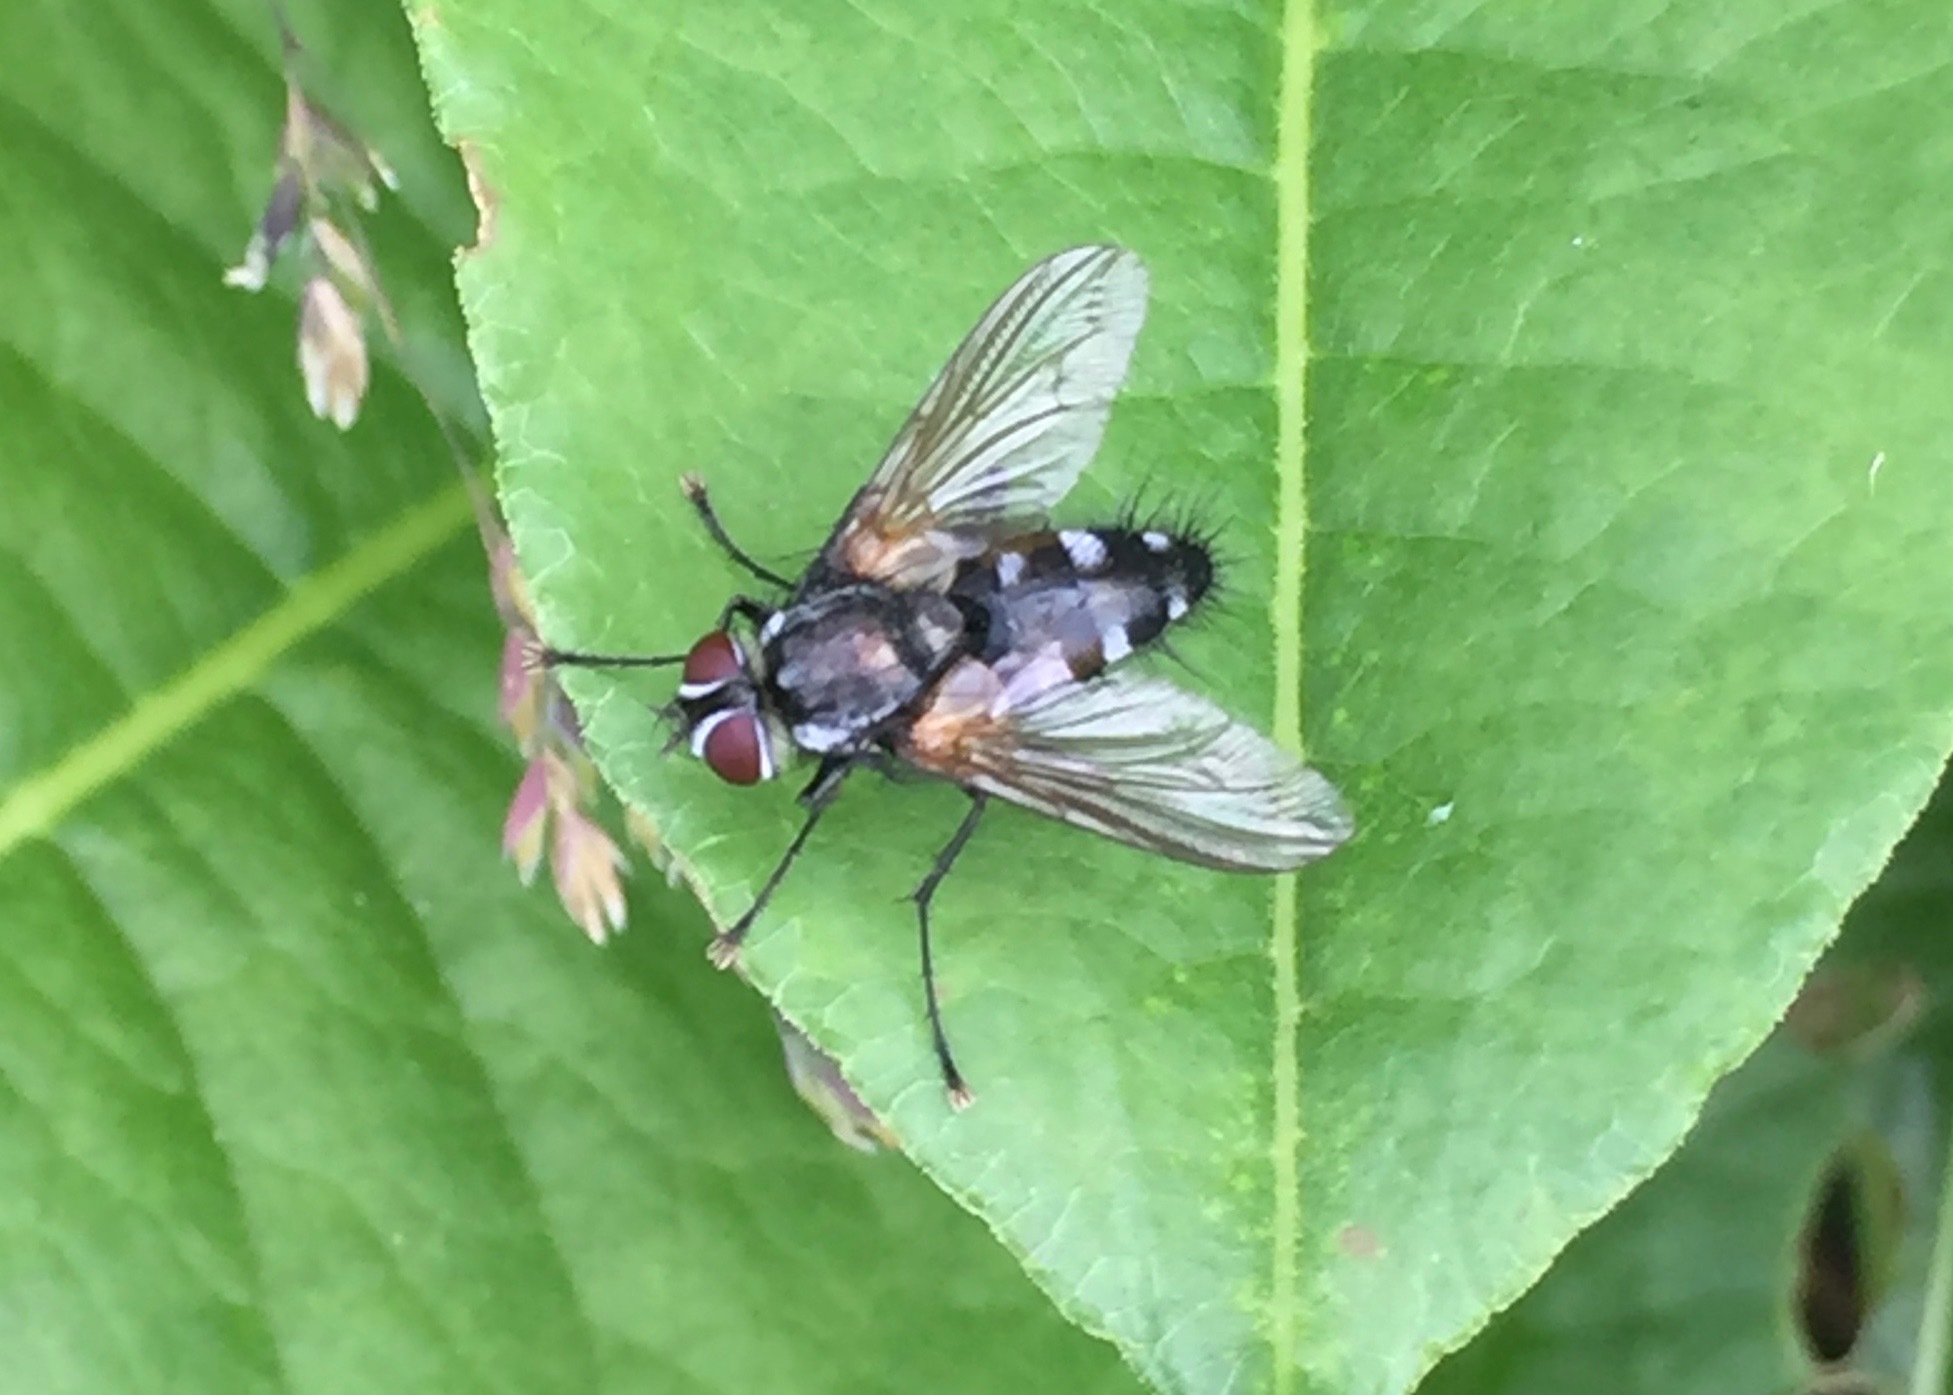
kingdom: Animalia
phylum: Arthropoda
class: Insecta
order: Diptera
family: Tachinidae
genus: Thelaira
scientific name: Thelaira nigripes
